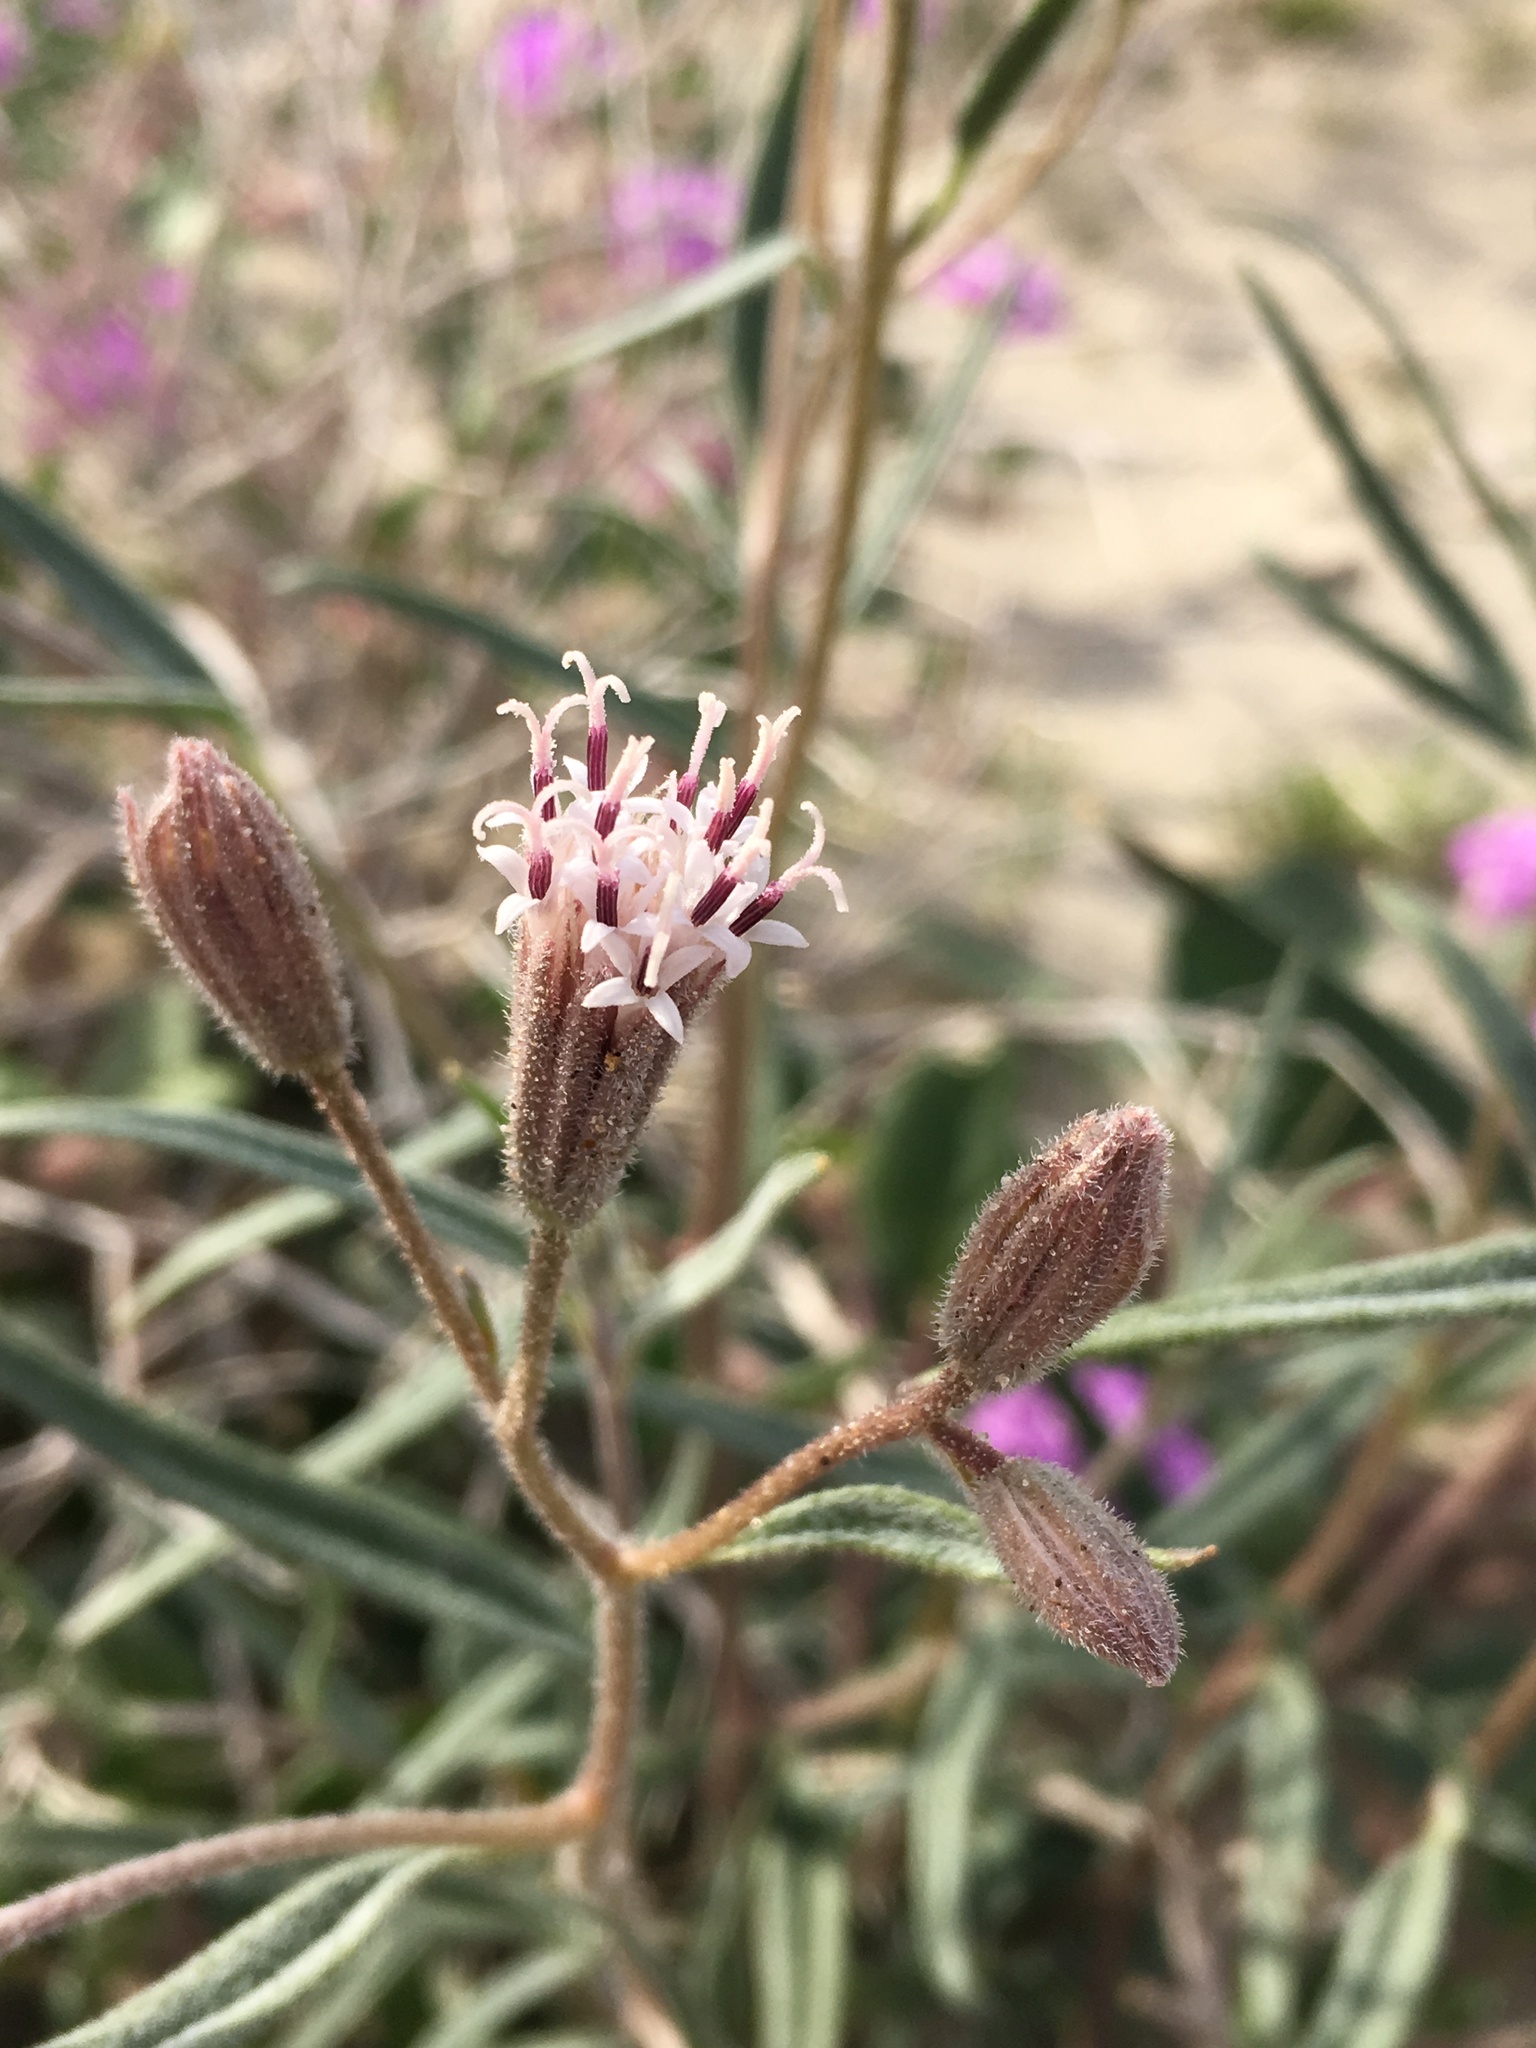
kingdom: Plantae
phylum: Tracheophyta
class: Magnoliopsida
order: Asterales
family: Asteraceae
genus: Palafoxia
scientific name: Palafoxia arida
